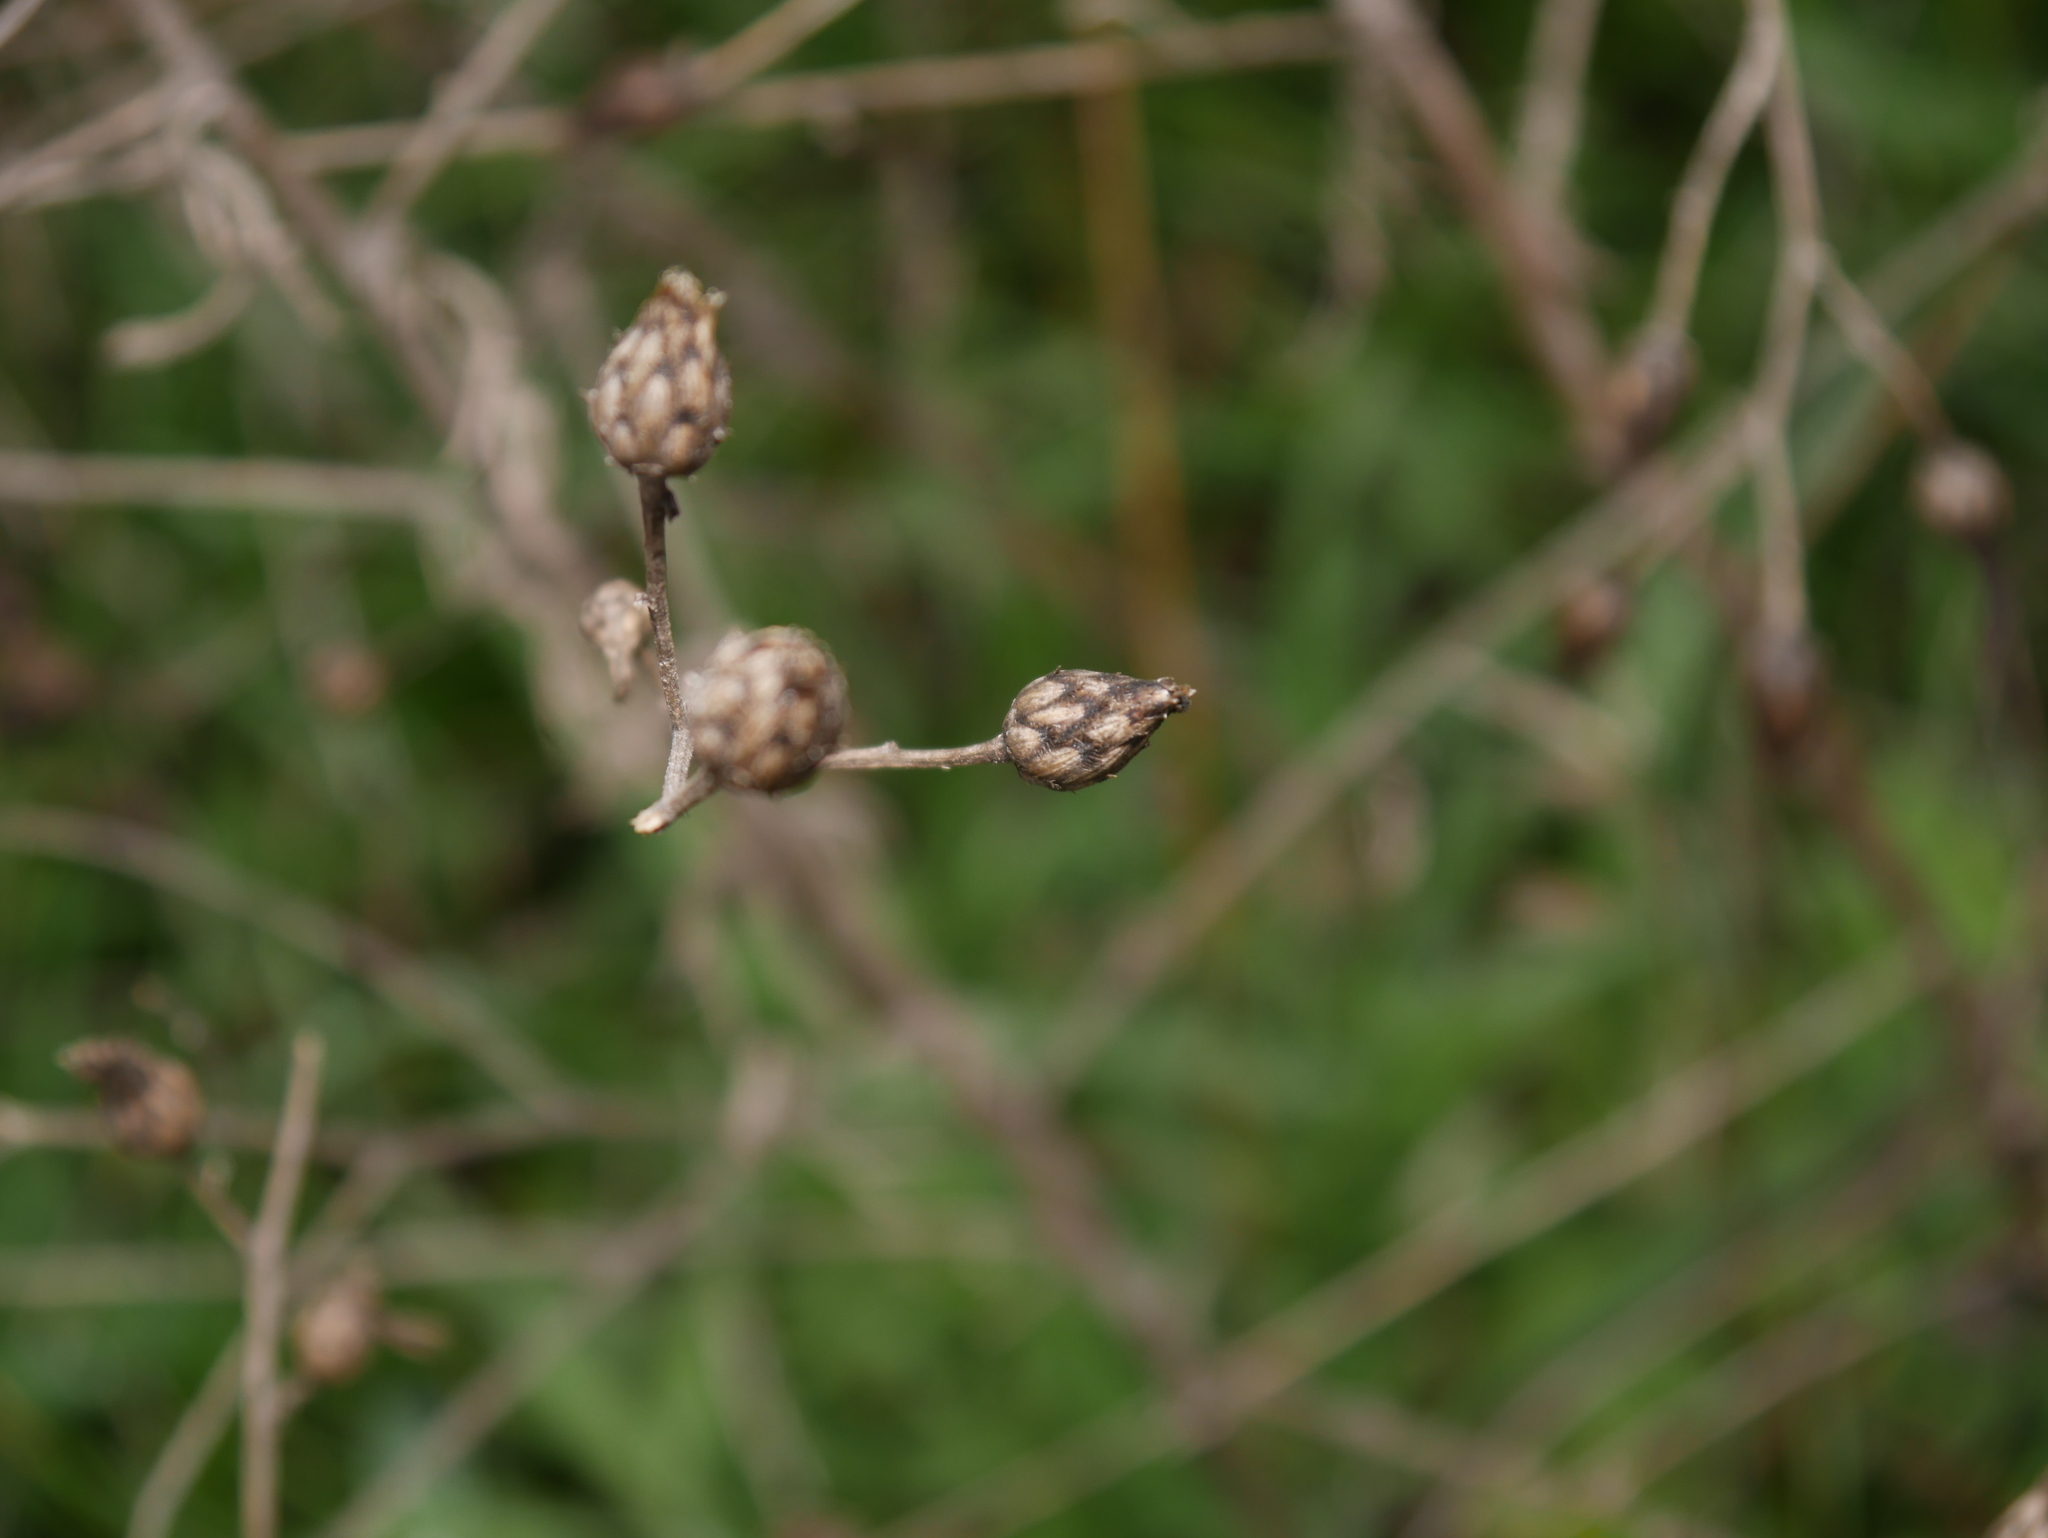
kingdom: Plantae
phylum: Tracheophyta
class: Magnoliopsida
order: Asterales
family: Asteraceae
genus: Centaurea
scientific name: Centaurea stoebe
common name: Spotted knapweed
